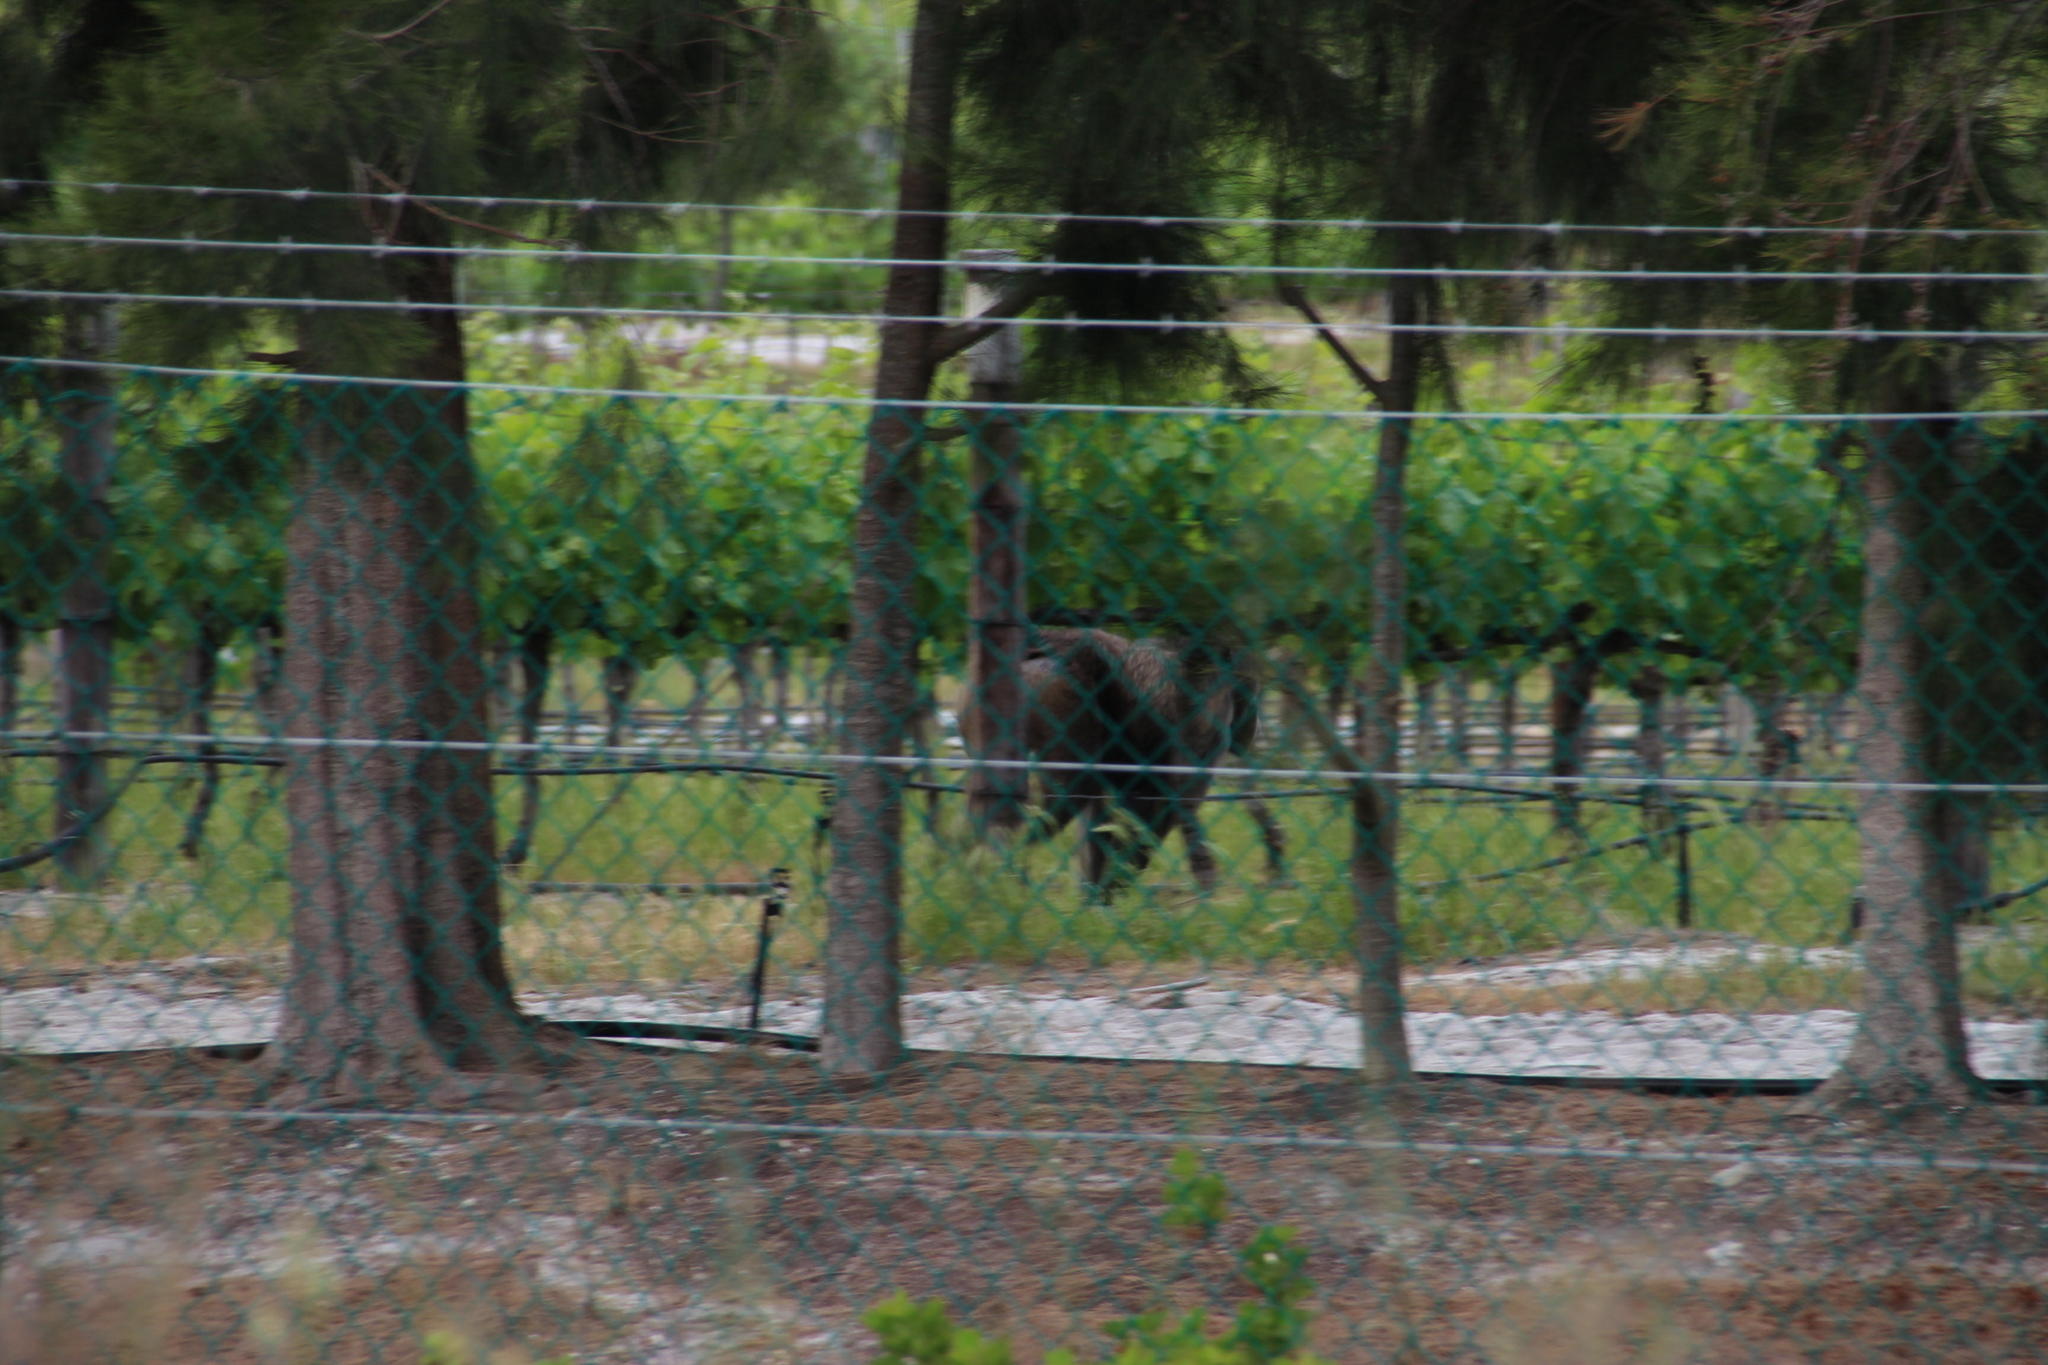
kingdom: Animalia
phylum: Chordata
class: Mammalia
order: Primates
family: Cercopithecidae
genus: Papio
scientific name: Papio ursinus
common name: Chacma baboon
